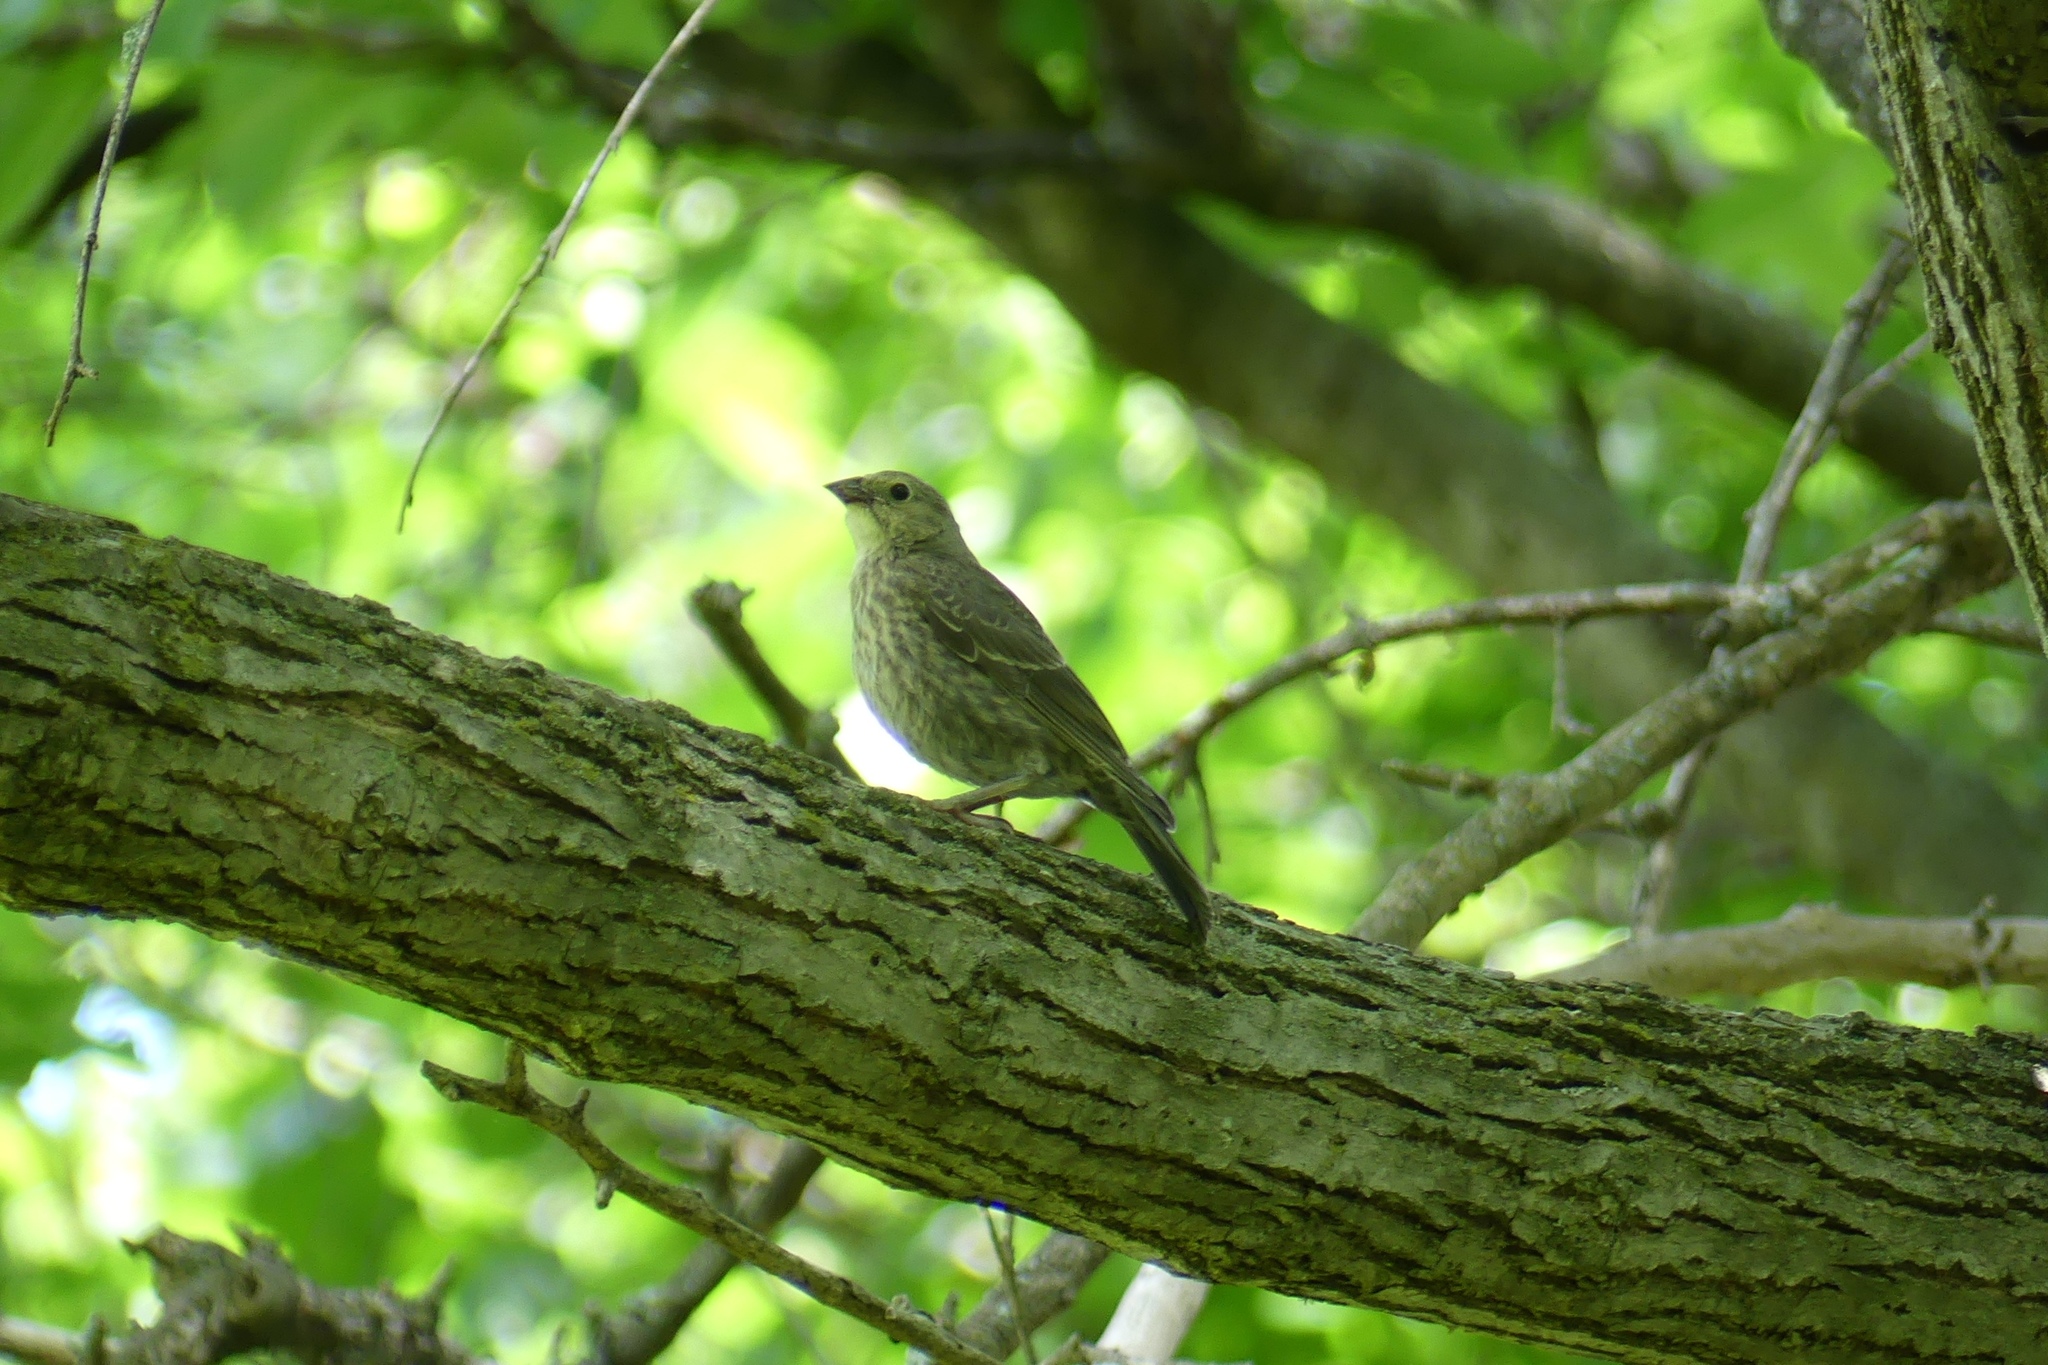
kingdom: Animalia
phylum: Chordata
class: Aves
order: Passeriformes
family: Icteridae
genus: Molothrus
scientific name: Molothrus ater
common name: Brown-headed cowbird
